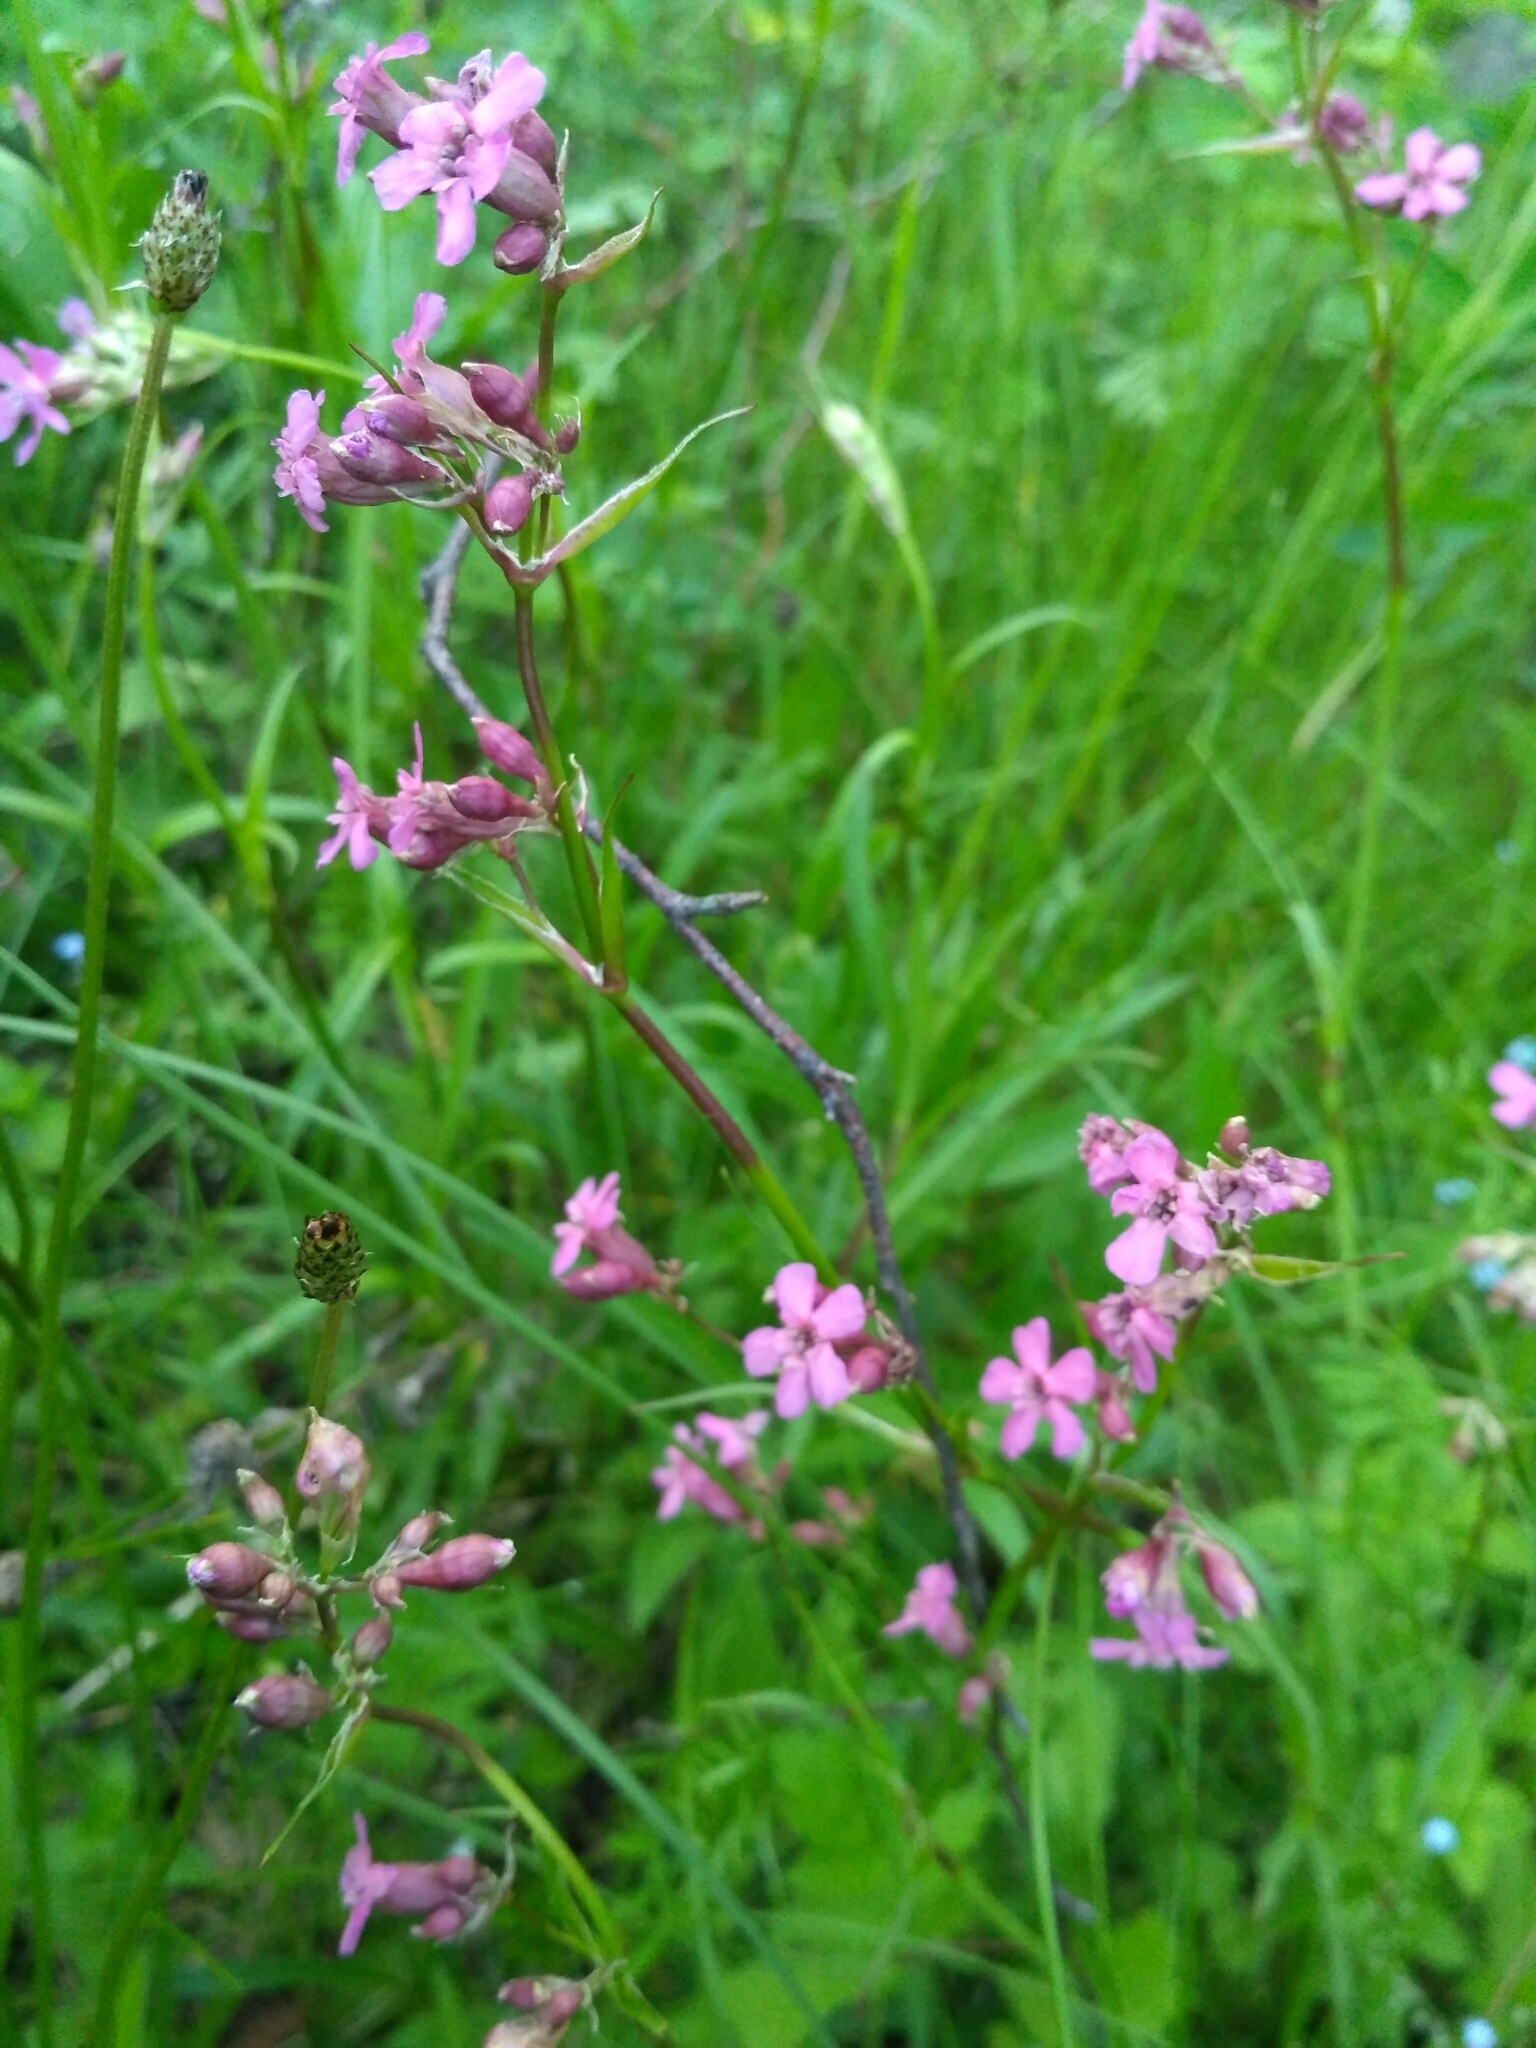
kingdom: Plantae
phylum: Tracheophyta
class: Magnoliopsida
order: Caryophyllales
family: Caryophyllaceae
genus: Viscaria
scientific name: Viscaria vulgaris
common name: Clammy campion
